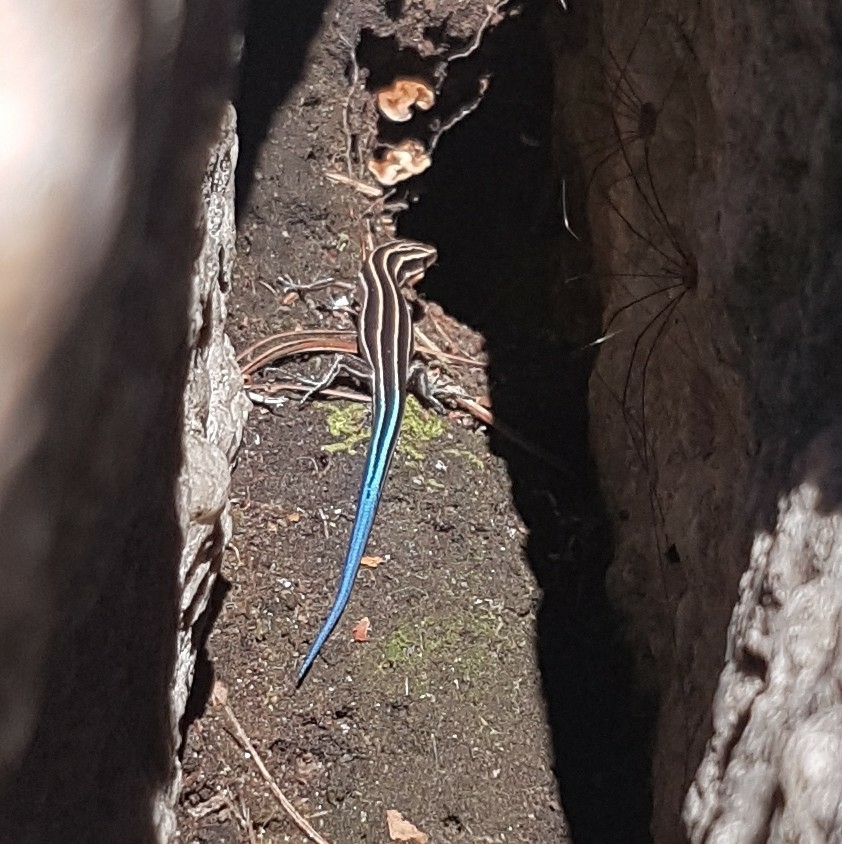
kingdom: Animalia
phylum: Chordata
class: Squamata
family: Scincidae
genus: Plestiodon
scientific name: Plestiodon fasciatus
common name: Five-lined skink
